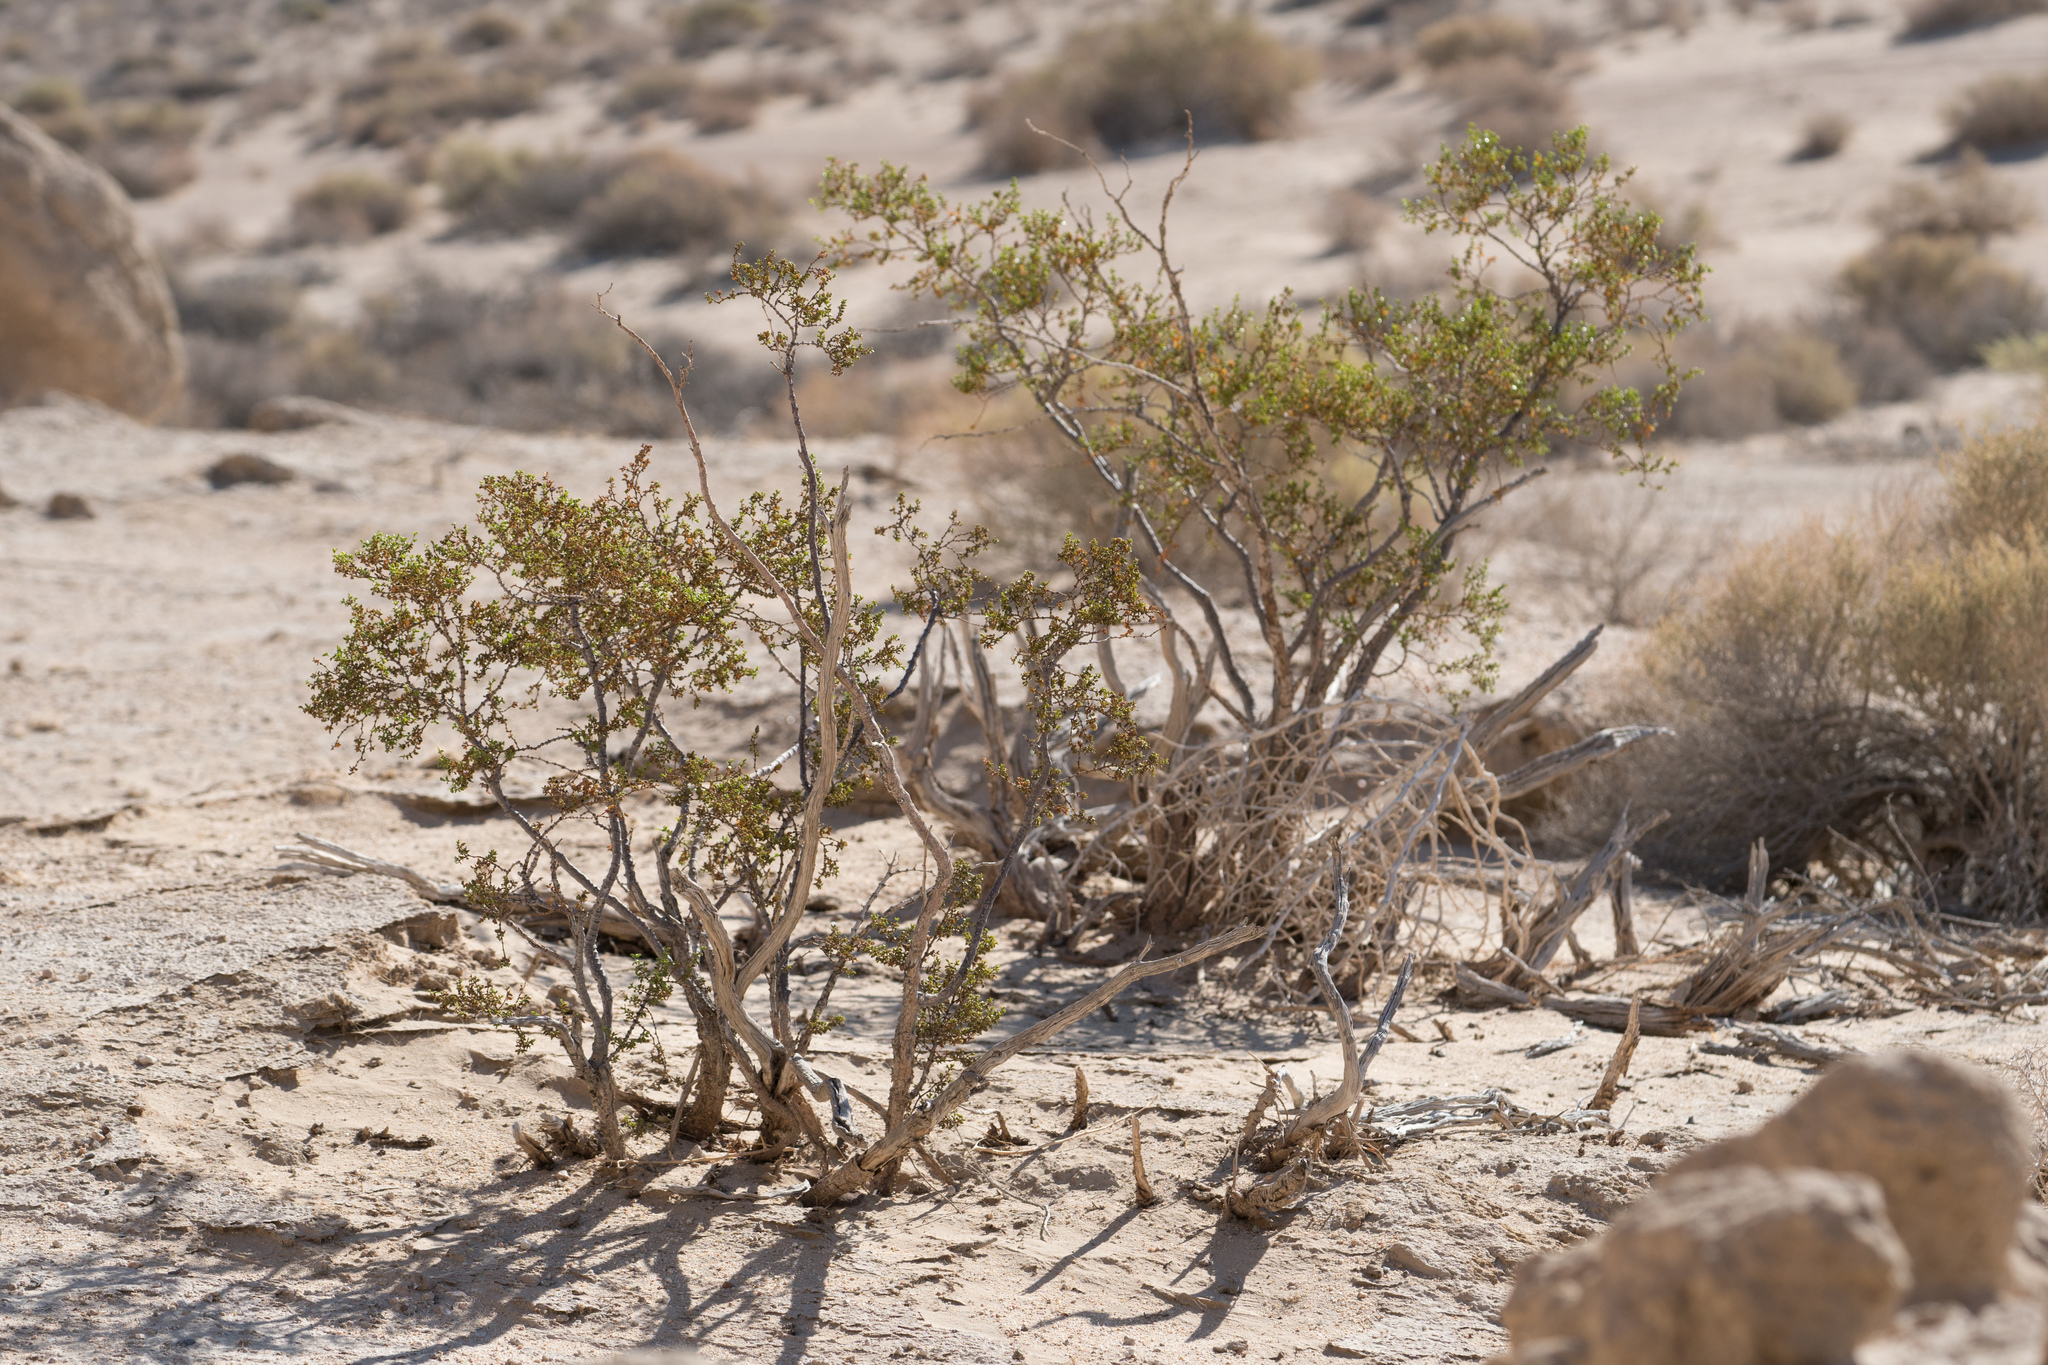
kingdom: Plantae
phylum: Tracheophyta
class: Magnoliopsida
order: Zygophyllales
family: Zygophyllaceae
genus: Larrea
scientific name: Larrea tridentata
